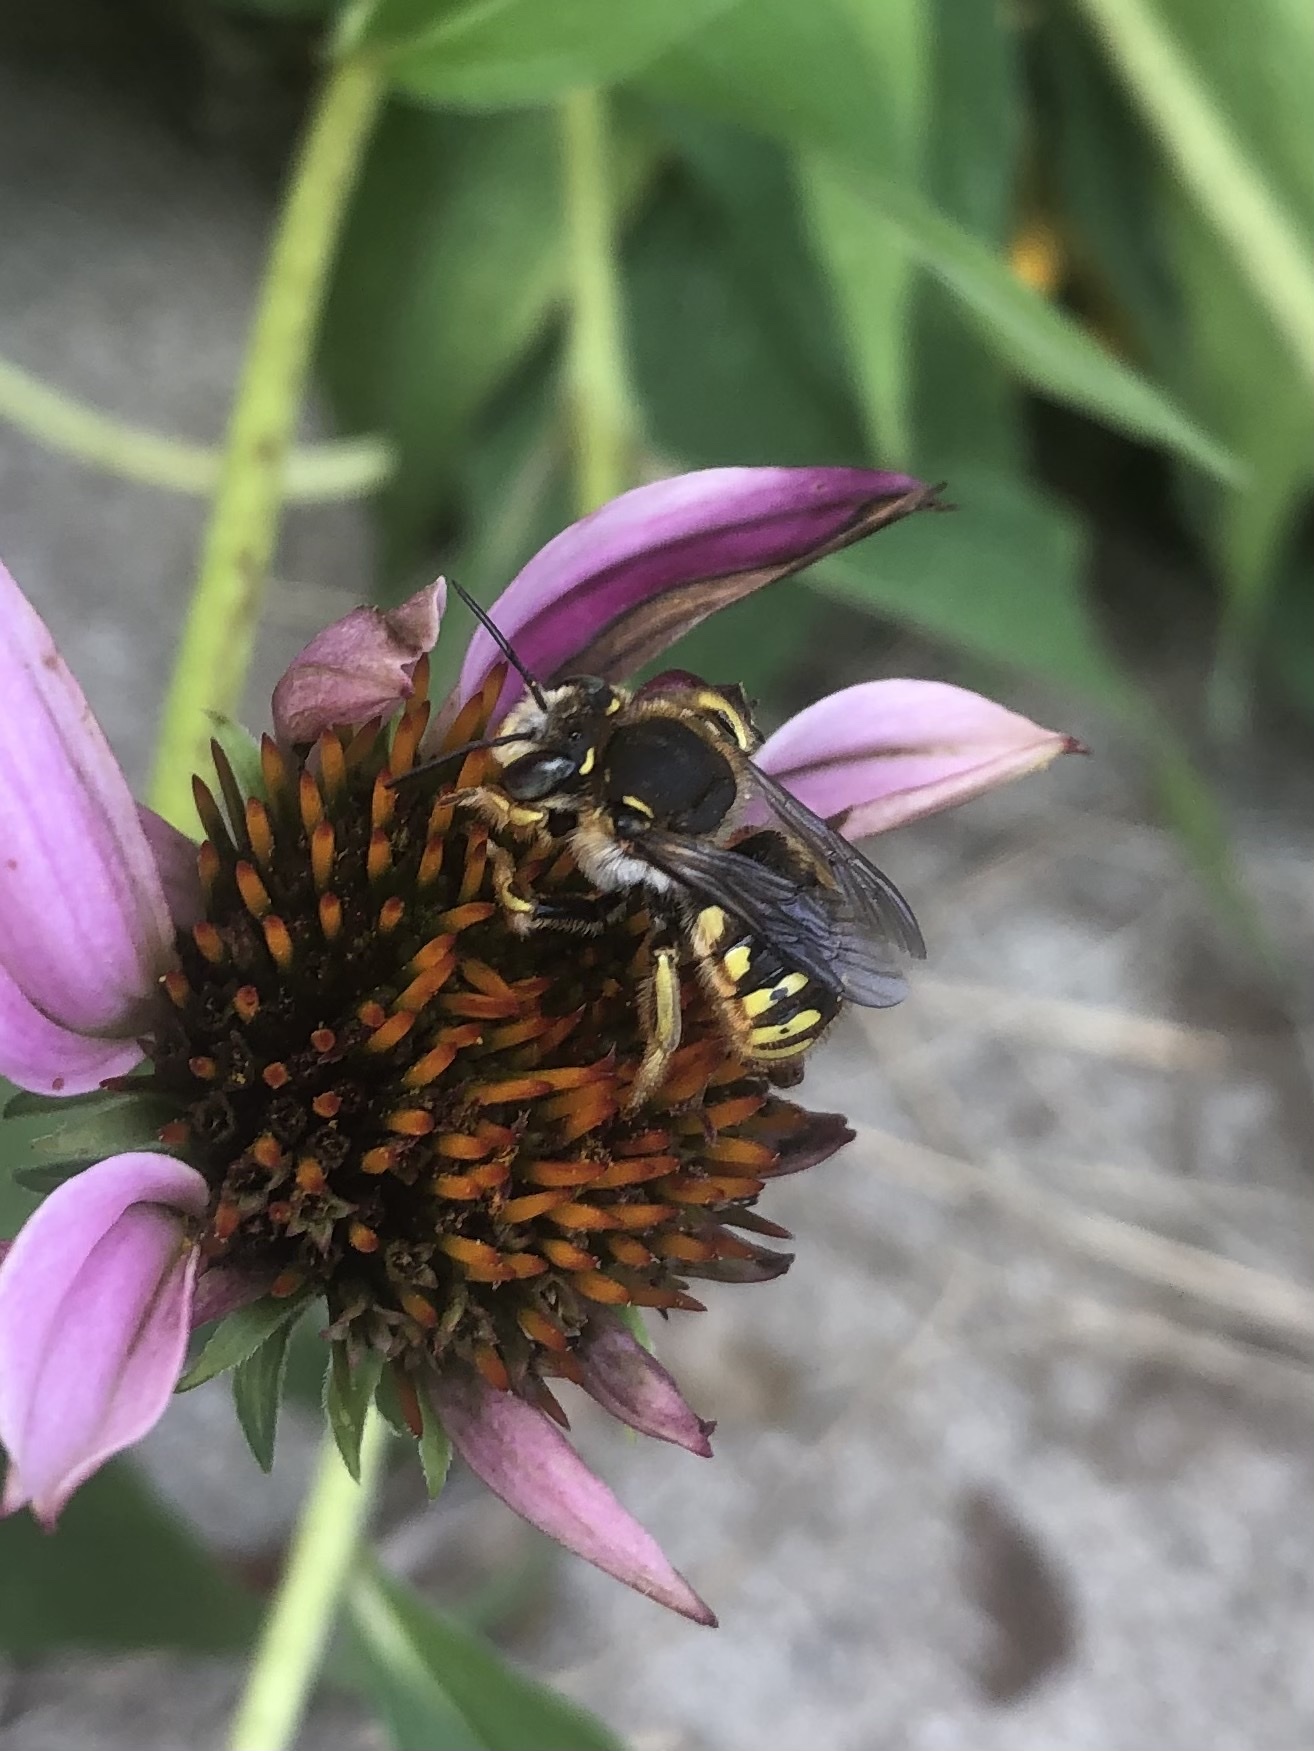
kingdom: Animalia
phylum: Arthropoda
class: Insecta
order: Hymenoptera
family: Megachilidae
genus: Anthidium
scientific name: Anthidium manicatum
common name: Wool carder bee
